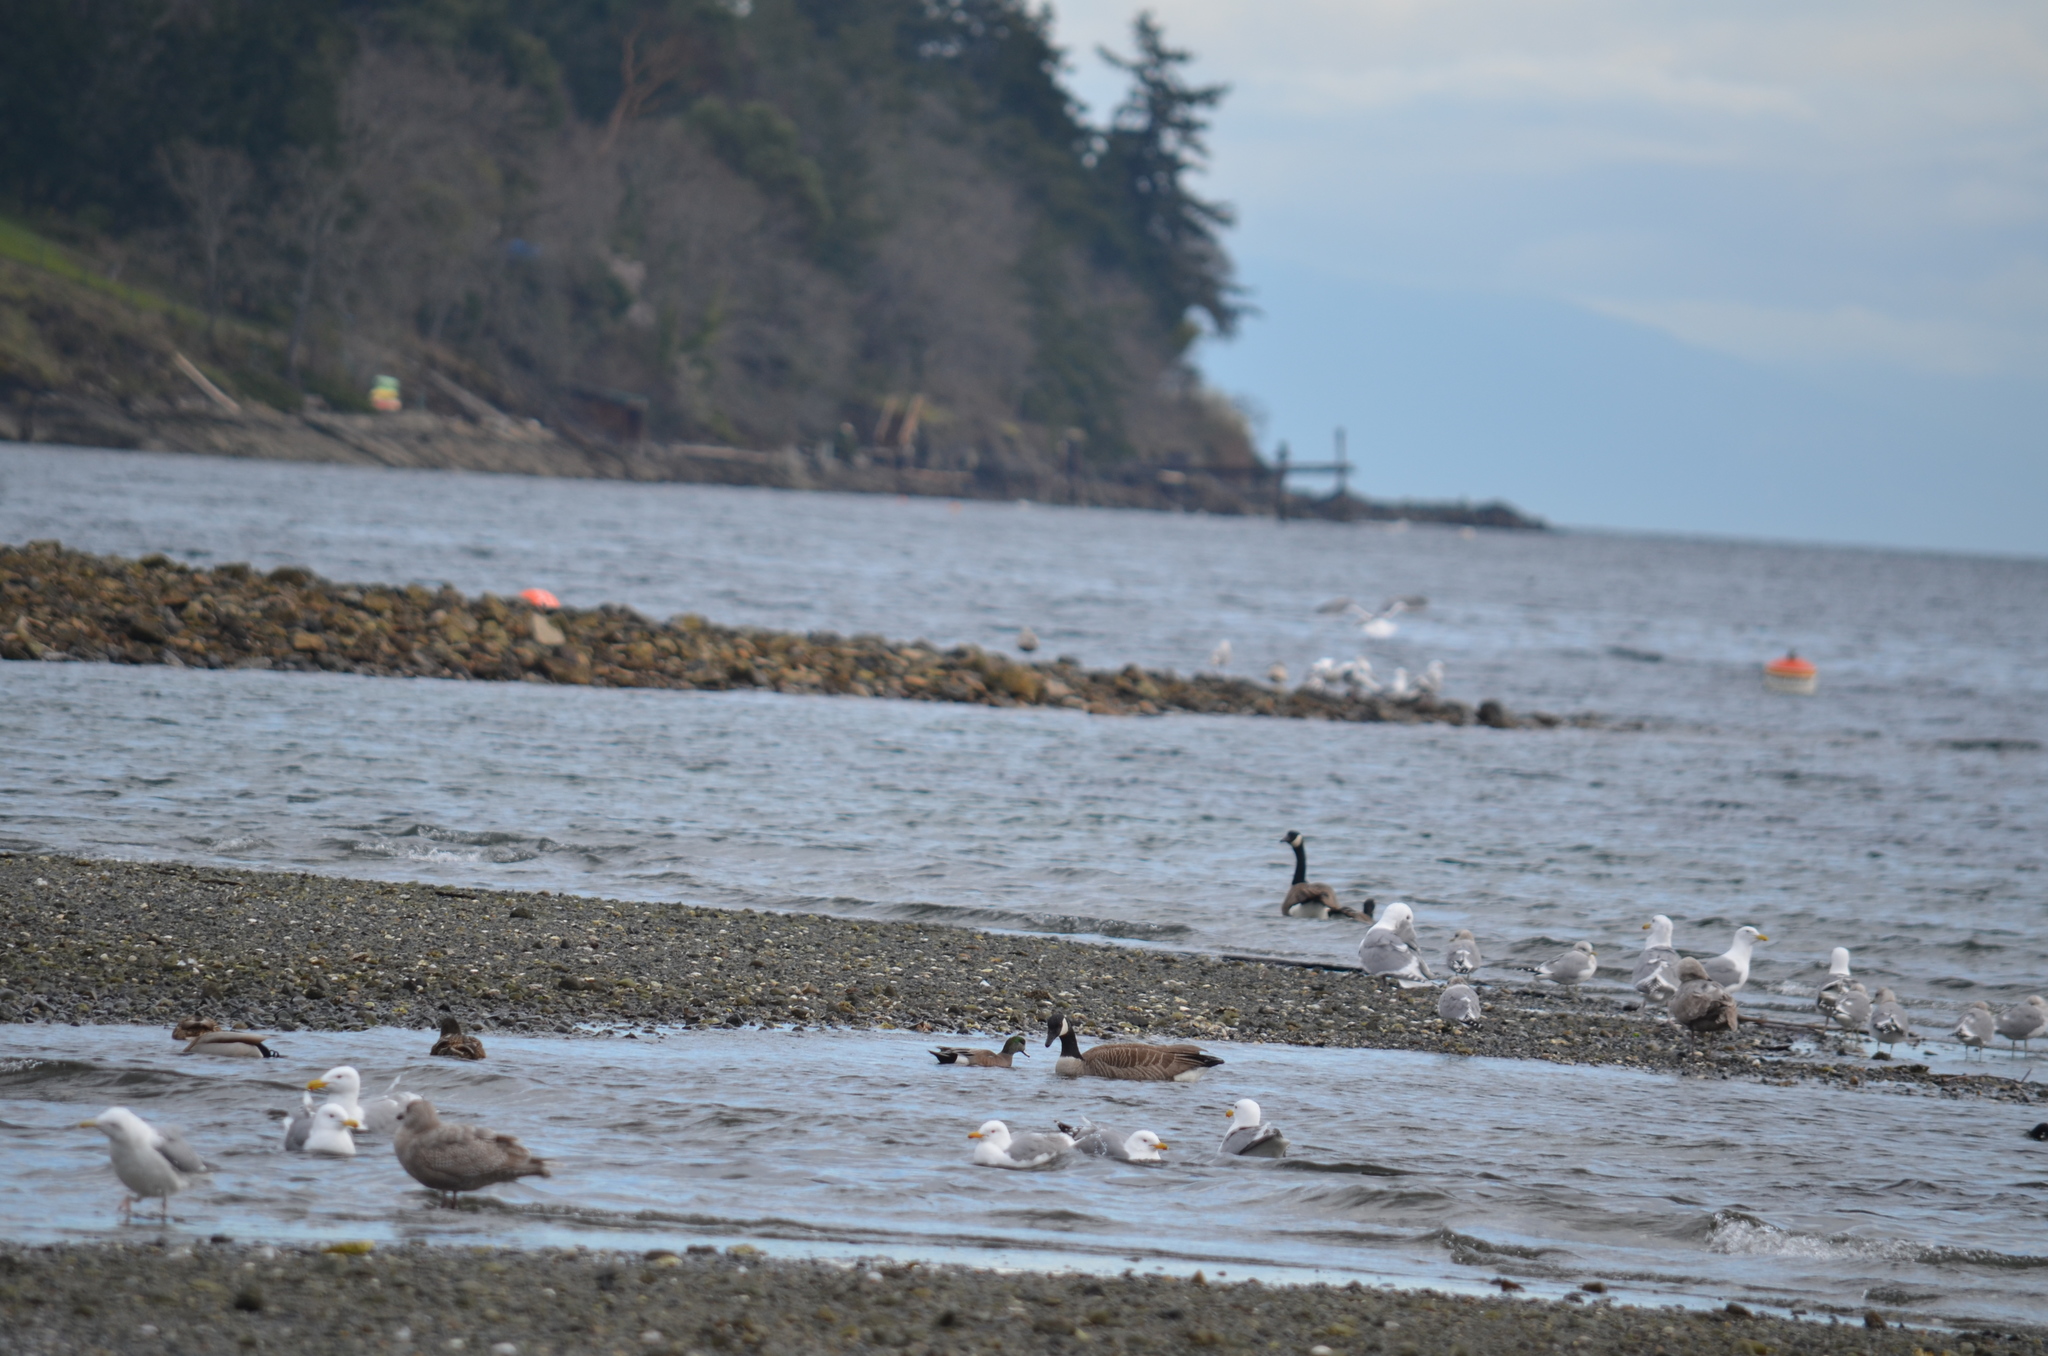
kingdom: Animalia
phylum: Chordata
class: Aves
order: Anseriformes
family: Anatidae
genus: Branta
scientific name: Branta canadensis
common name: Canada goose
